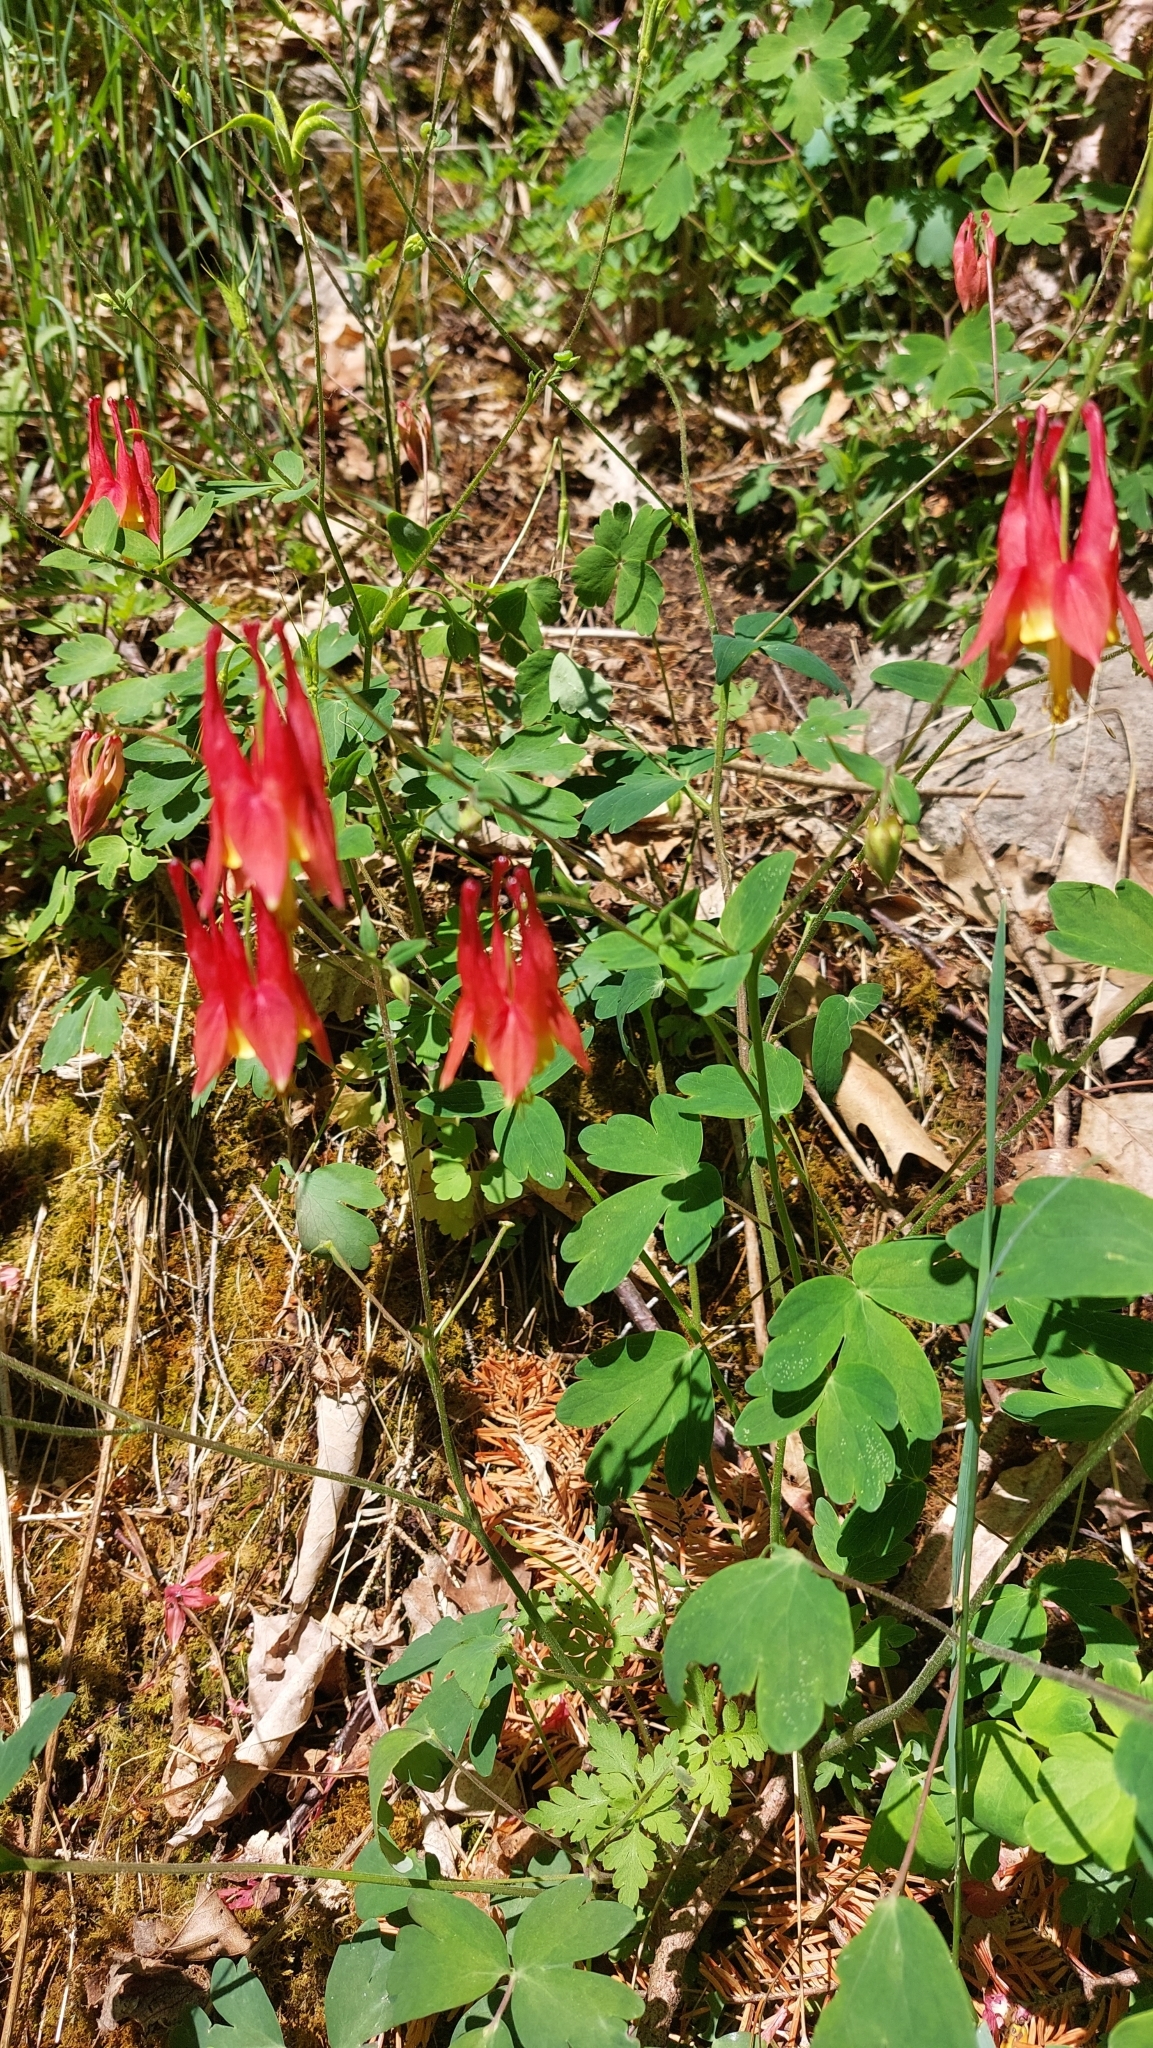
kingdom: Plantae
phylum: Tracheophyta
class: Magnoliopsida
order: Ranunculales
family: Ranunculaceae
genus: Aquilegia
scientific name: Aquilegia canadensis
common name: American columbine
